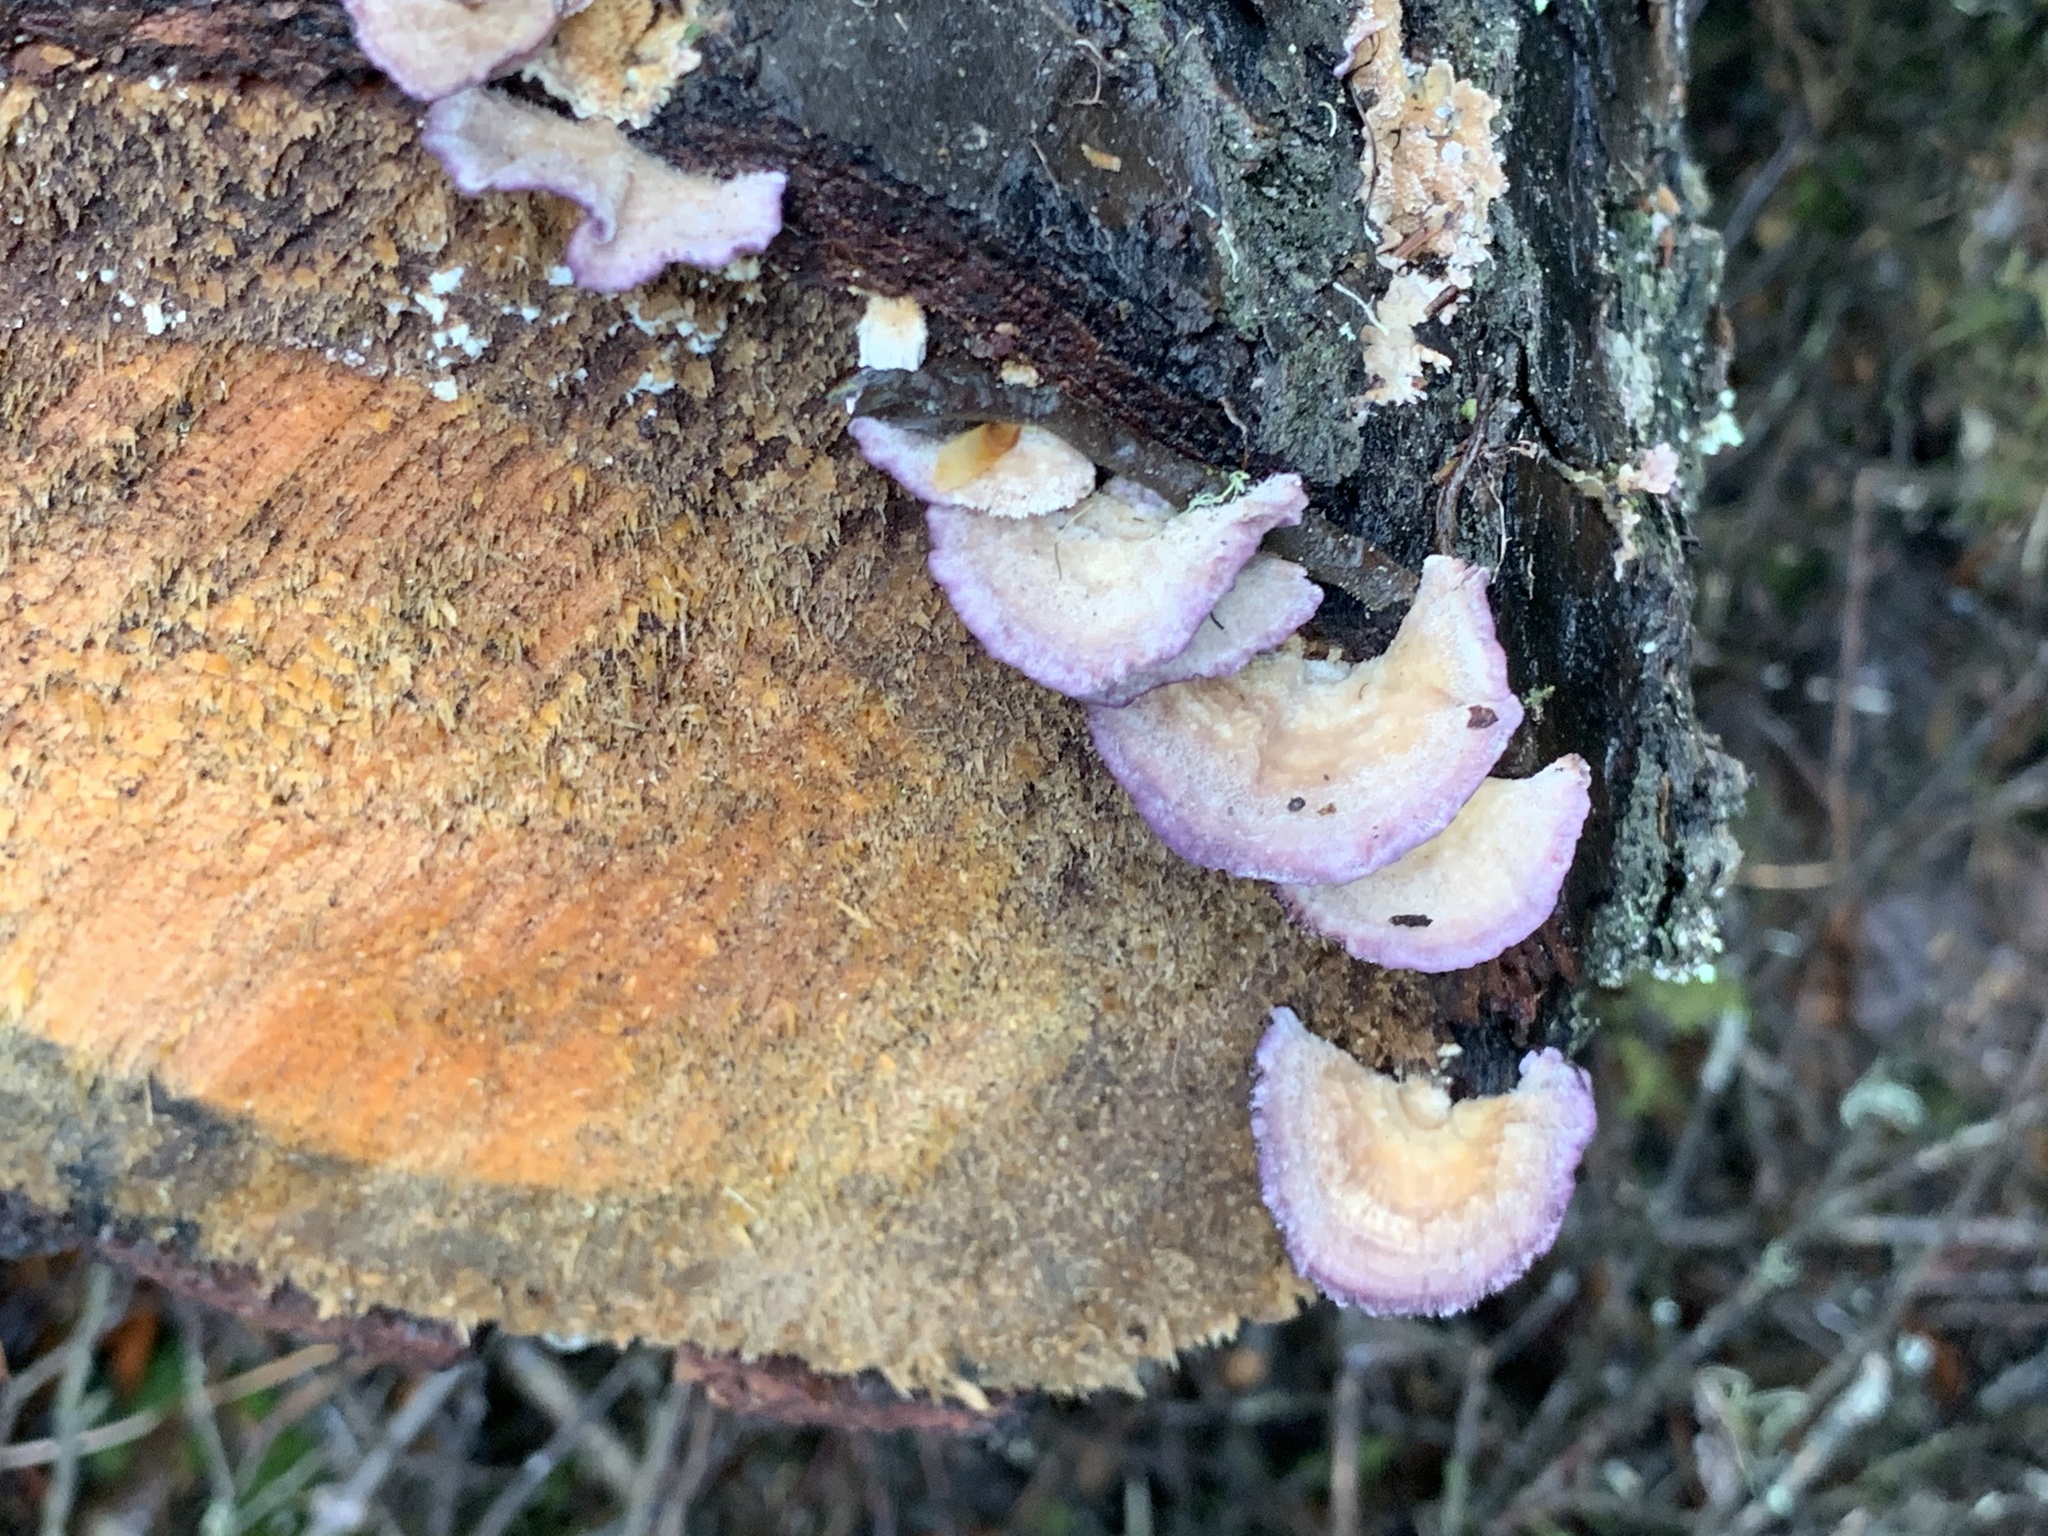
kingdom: Fungi
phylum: Basidiomycota
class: Agaricomycetes
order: Hymenochaetales
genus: Trichaptum
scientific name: Trichaptum abietinum
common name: Purplepore bracket
